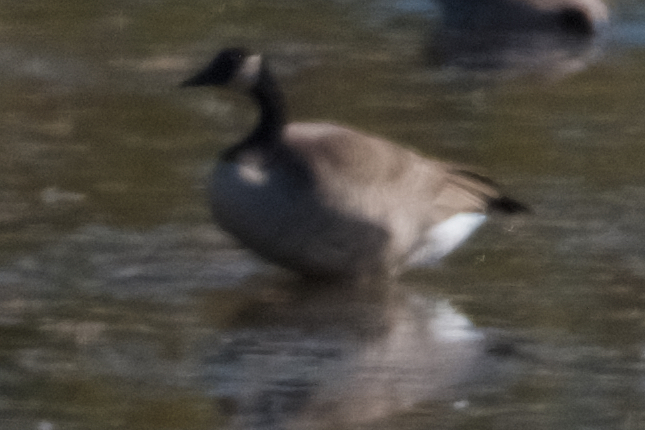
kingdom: Animalia
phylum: Chordata
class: Aves
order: Anseriformes
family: Anatidae
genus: Branta
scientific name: Branta canadensis
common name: Canada goose
